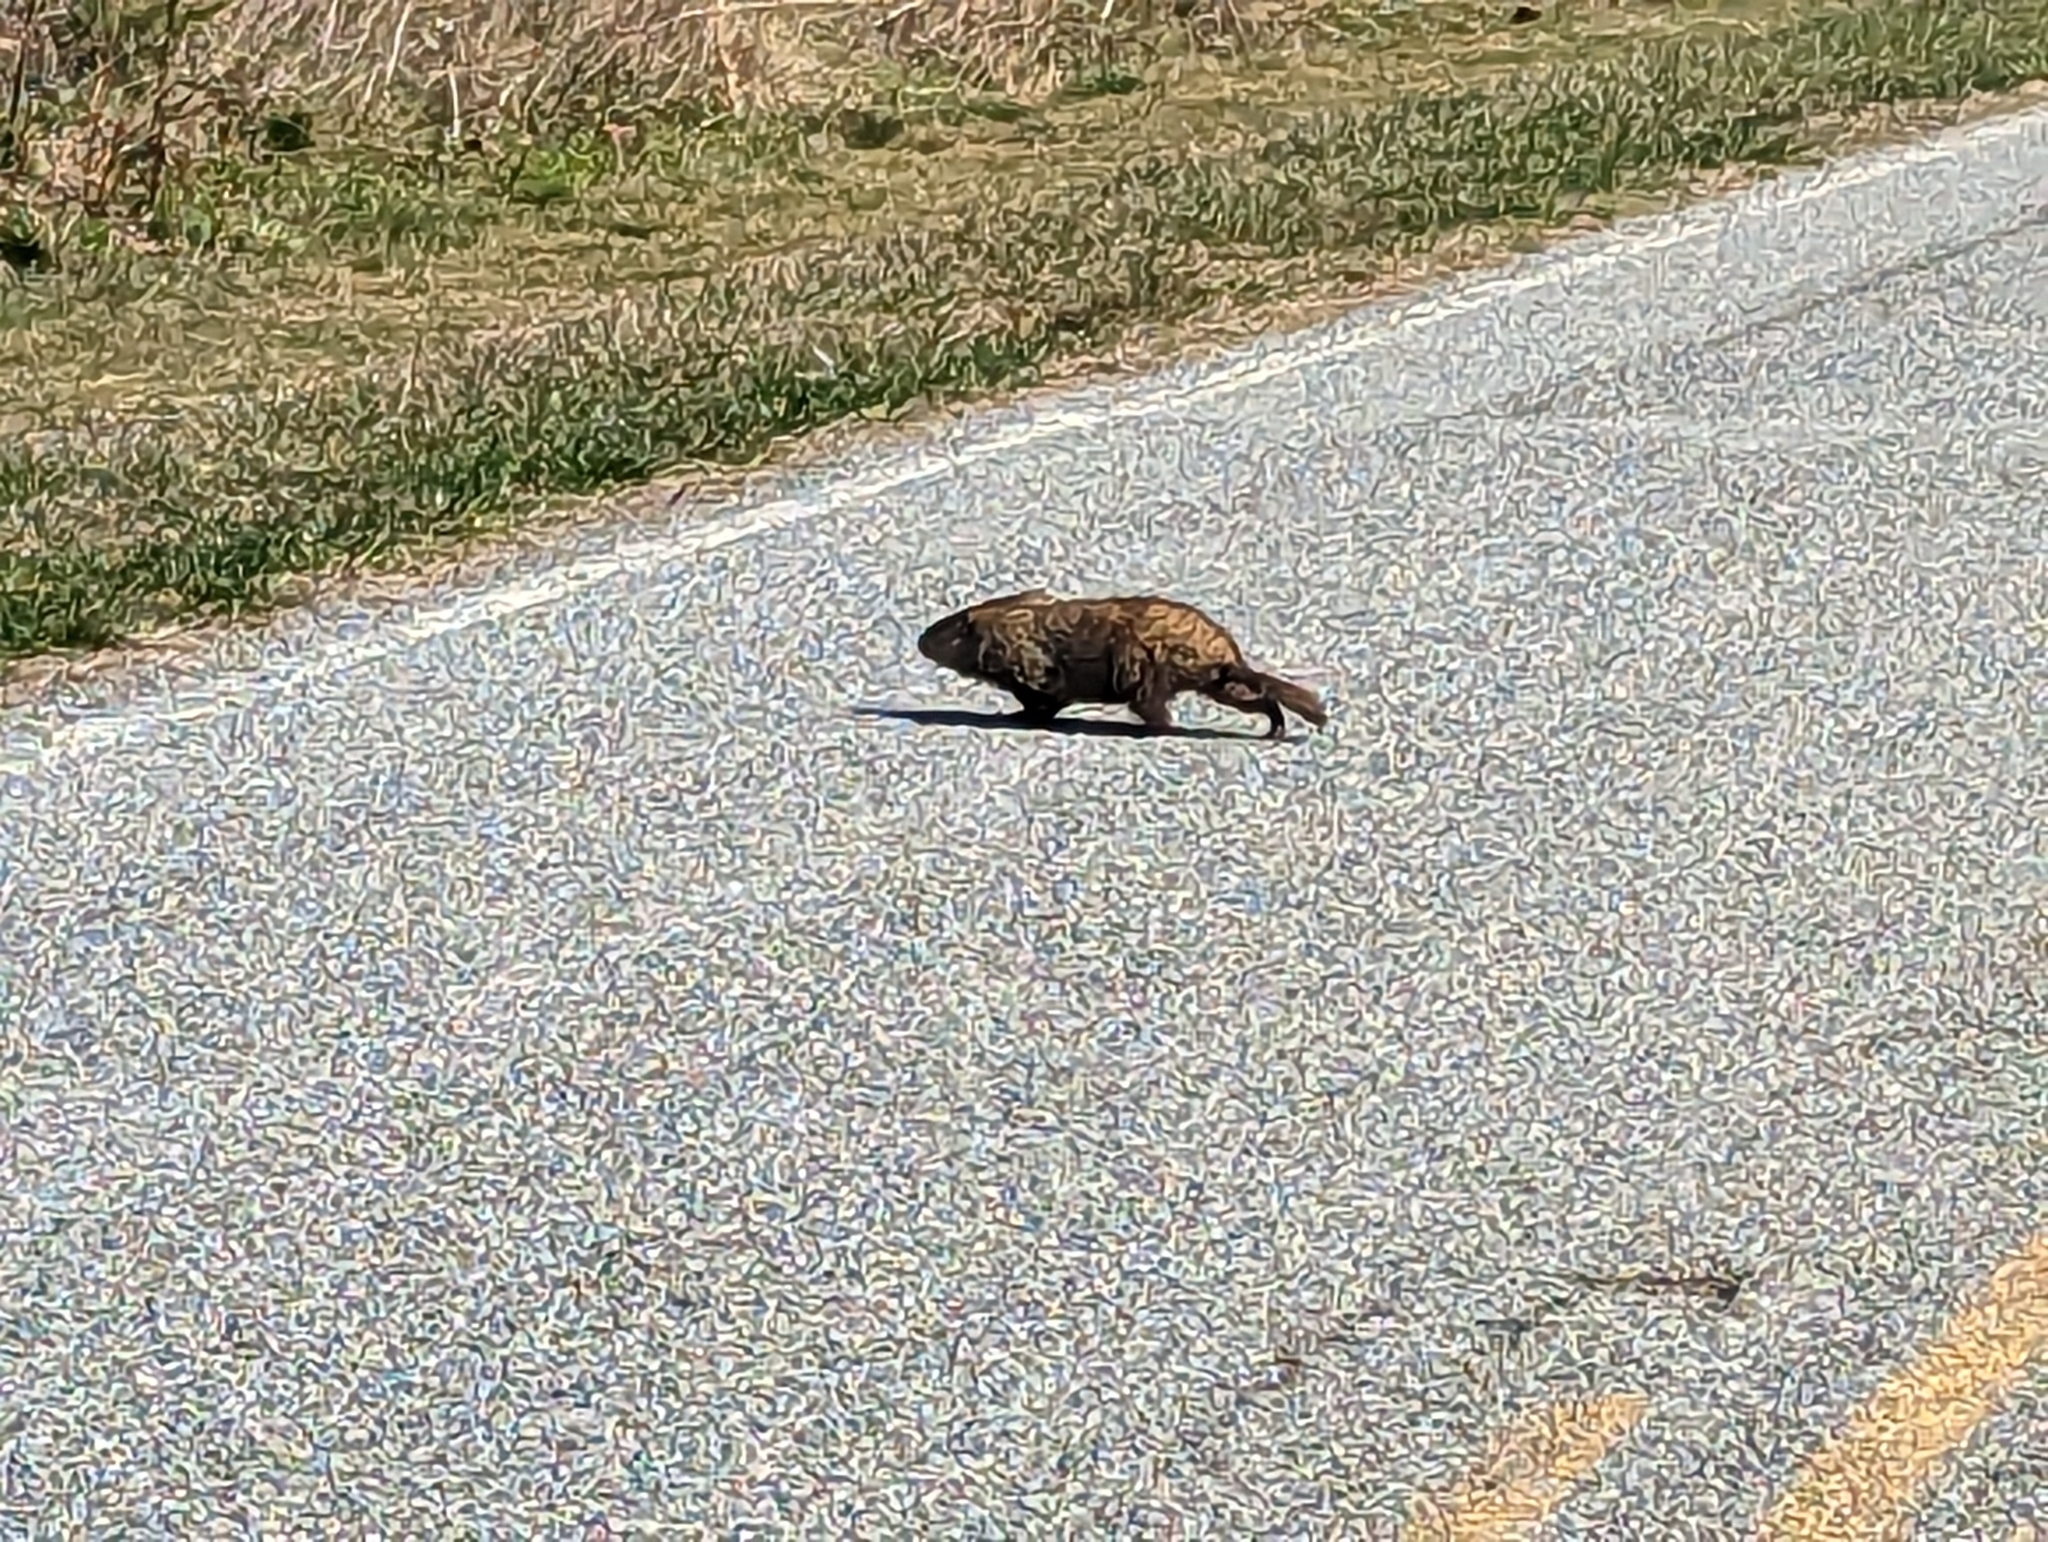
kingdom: Animalia
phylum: Chordata
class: Mammalia
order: Rodentia
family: Sciuridae
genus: Marmota
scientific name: Marmota monax
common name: Groundhog
